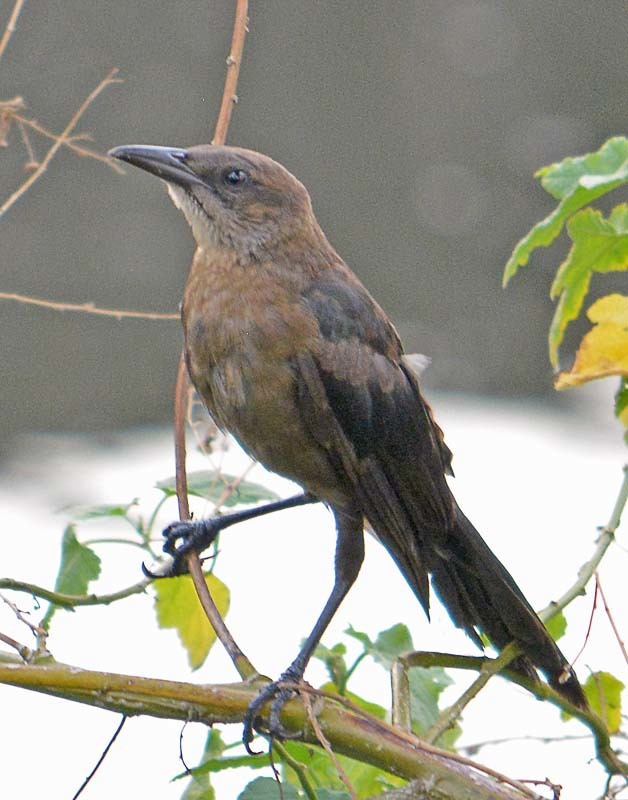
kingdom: Animalia
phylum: Chordata
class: Aves
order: Passeriformes
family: Icteridae
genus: Quiscalus
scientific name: Quiscalus mexicanus
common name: Great-tailed grackle
